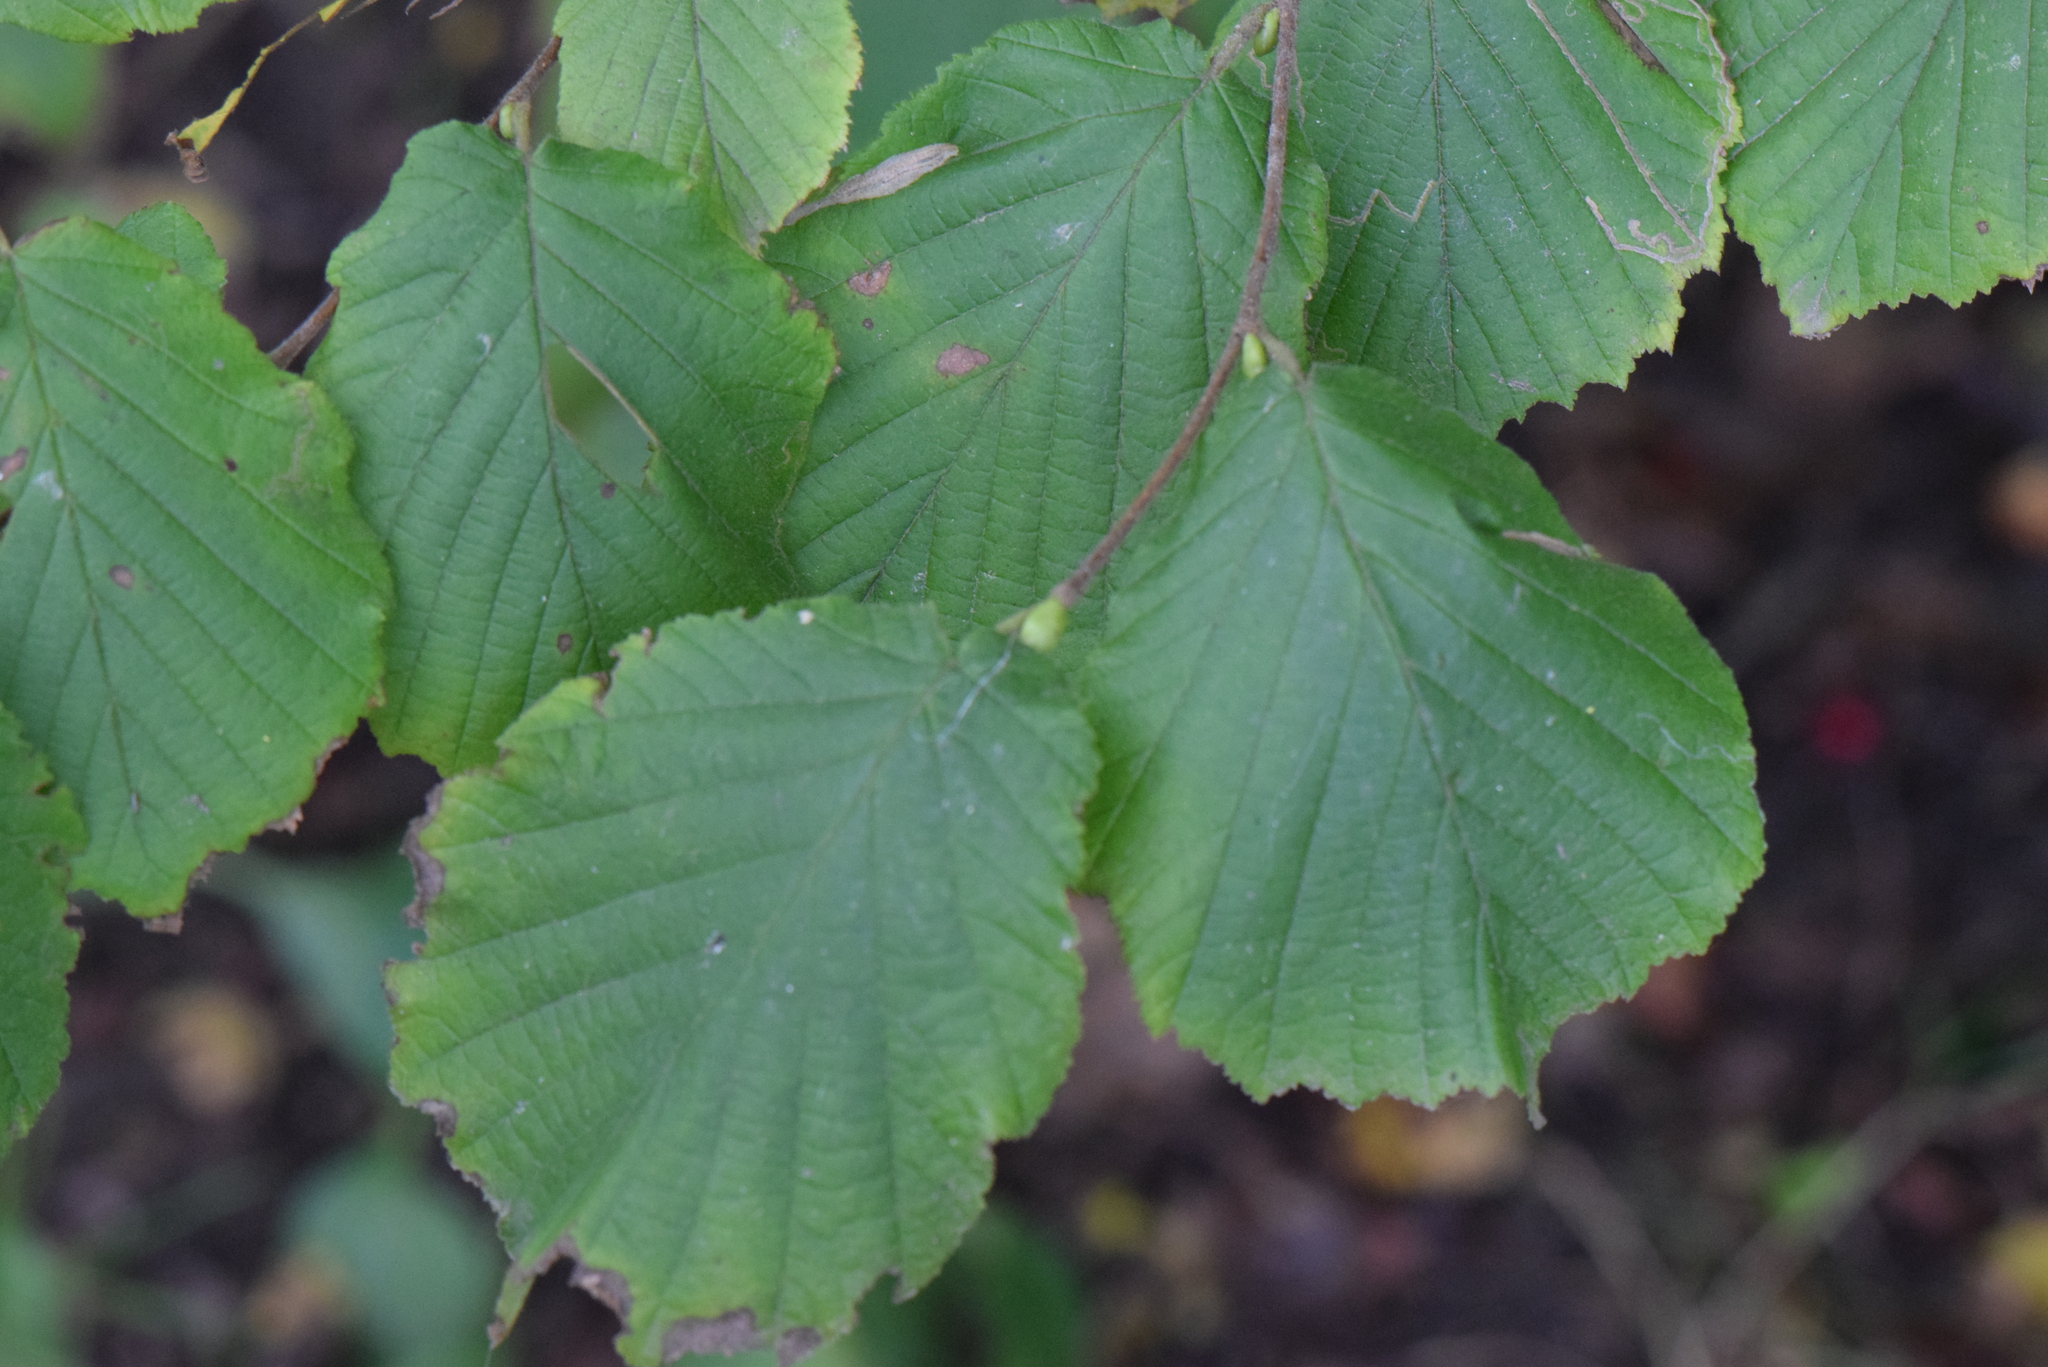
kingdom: Plantae
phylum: Tracheophyta
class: Magnoliopsida
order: Fagales
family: Betulaceae
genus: Corylus
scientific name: Corylus avellana
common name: European hazel
